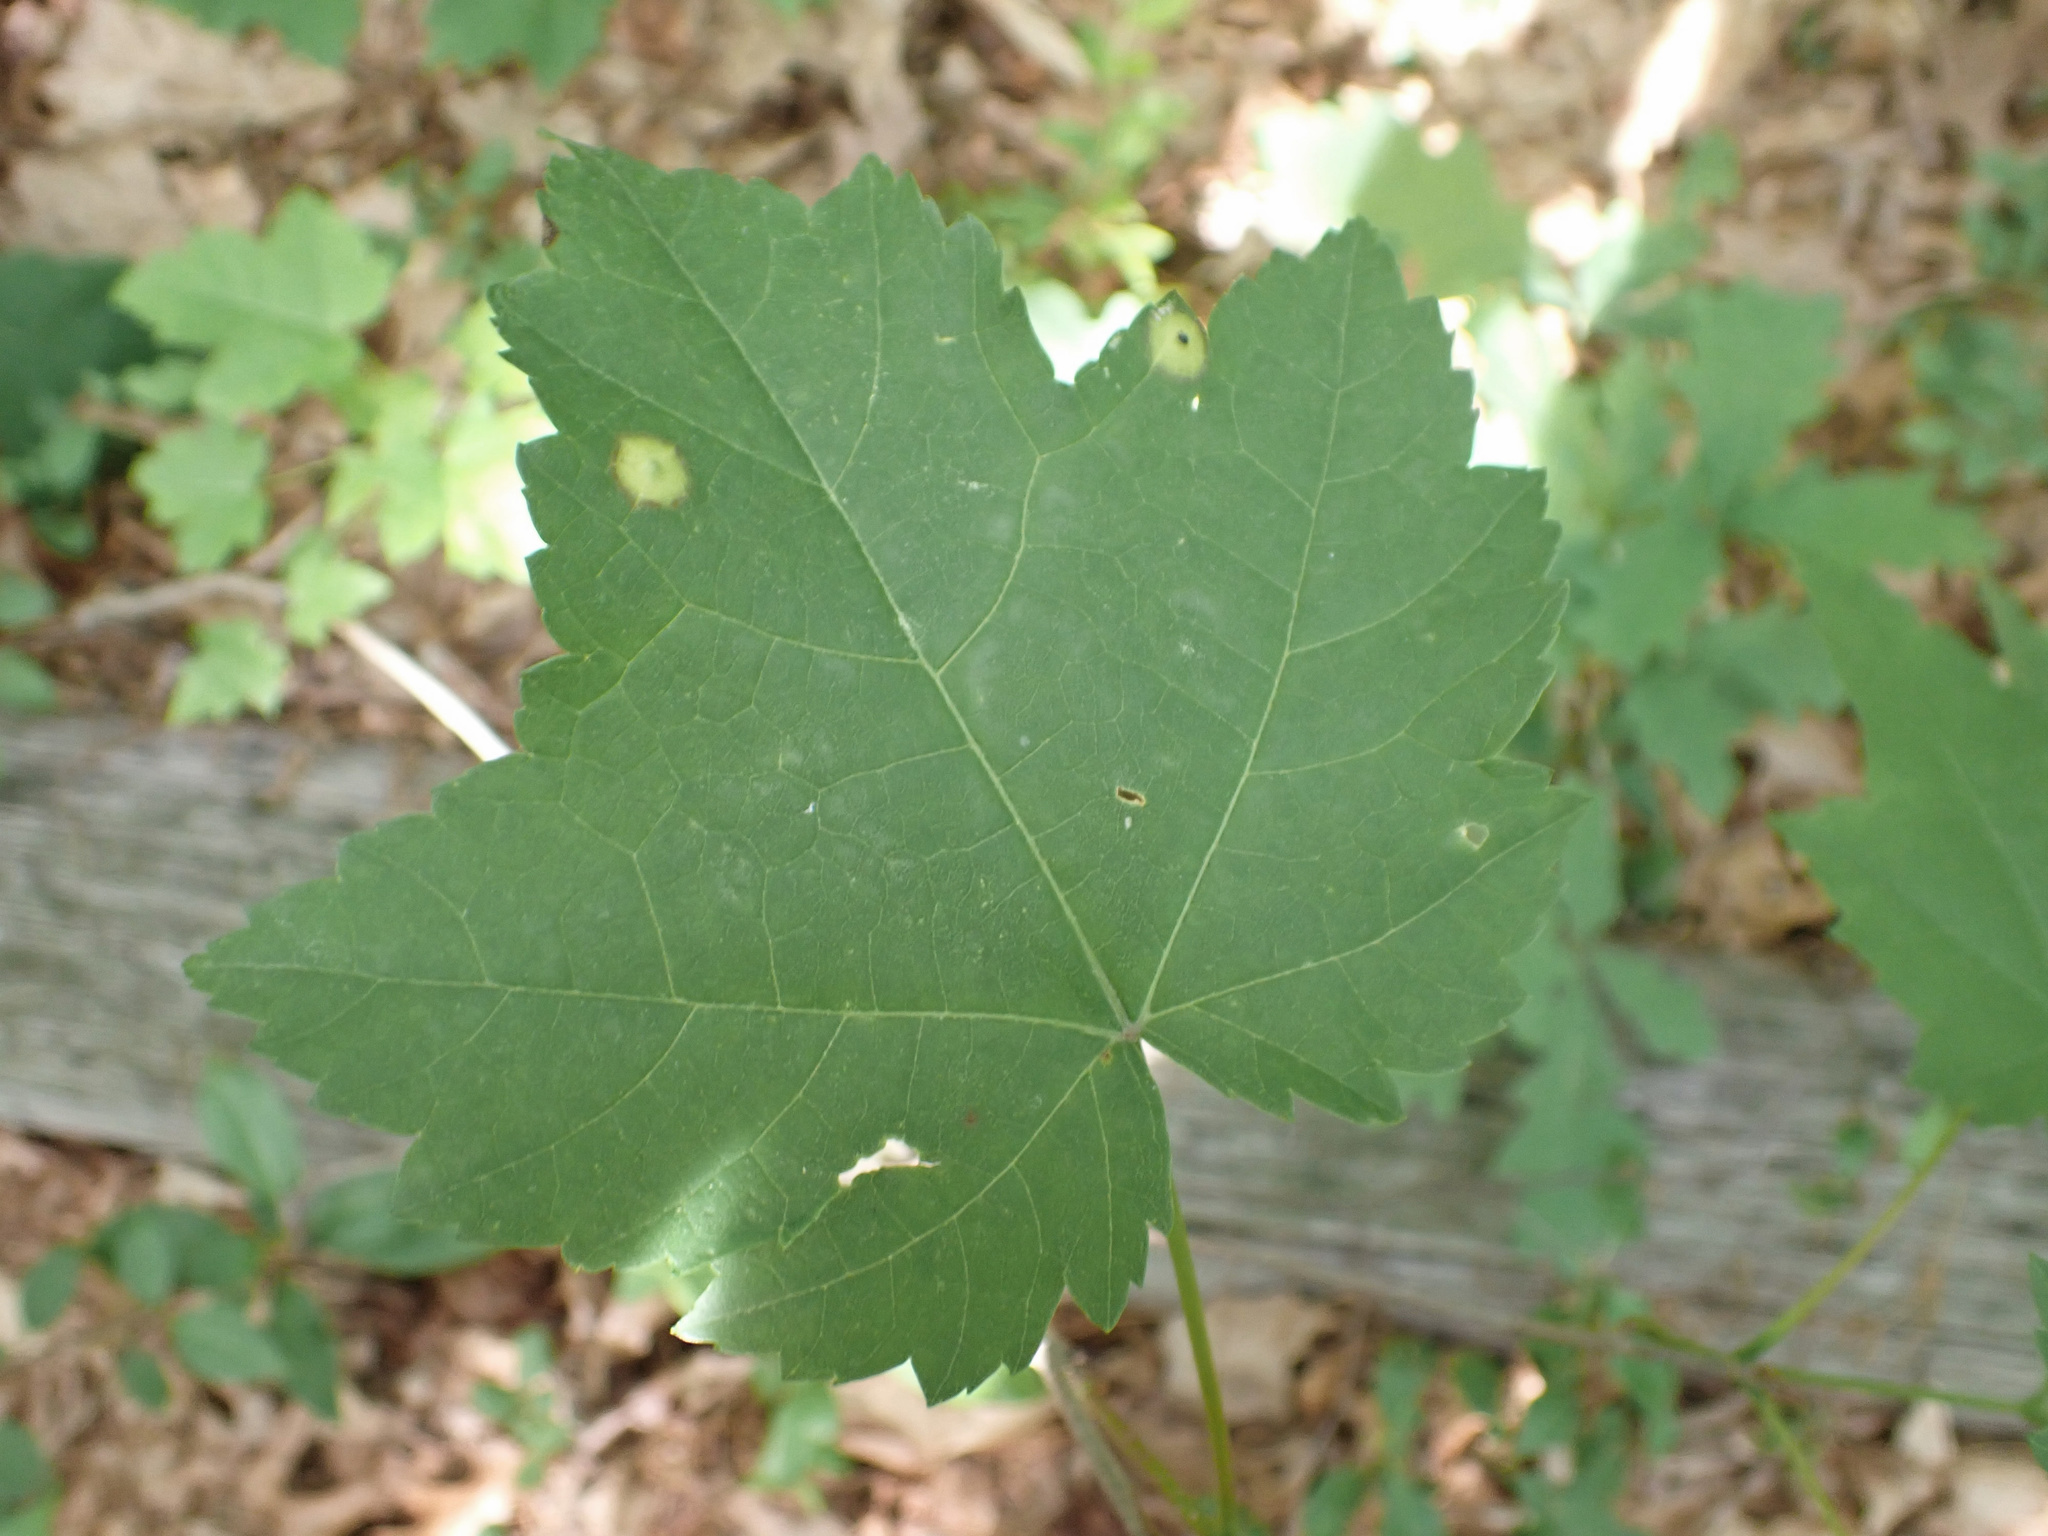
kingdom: Animalia
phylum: Arthropoda
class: Insecta
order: Diptera
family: Cecidomyiidae
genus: Acericecis
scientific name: Acericecis ocellaris
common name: Ocellate gall midge
